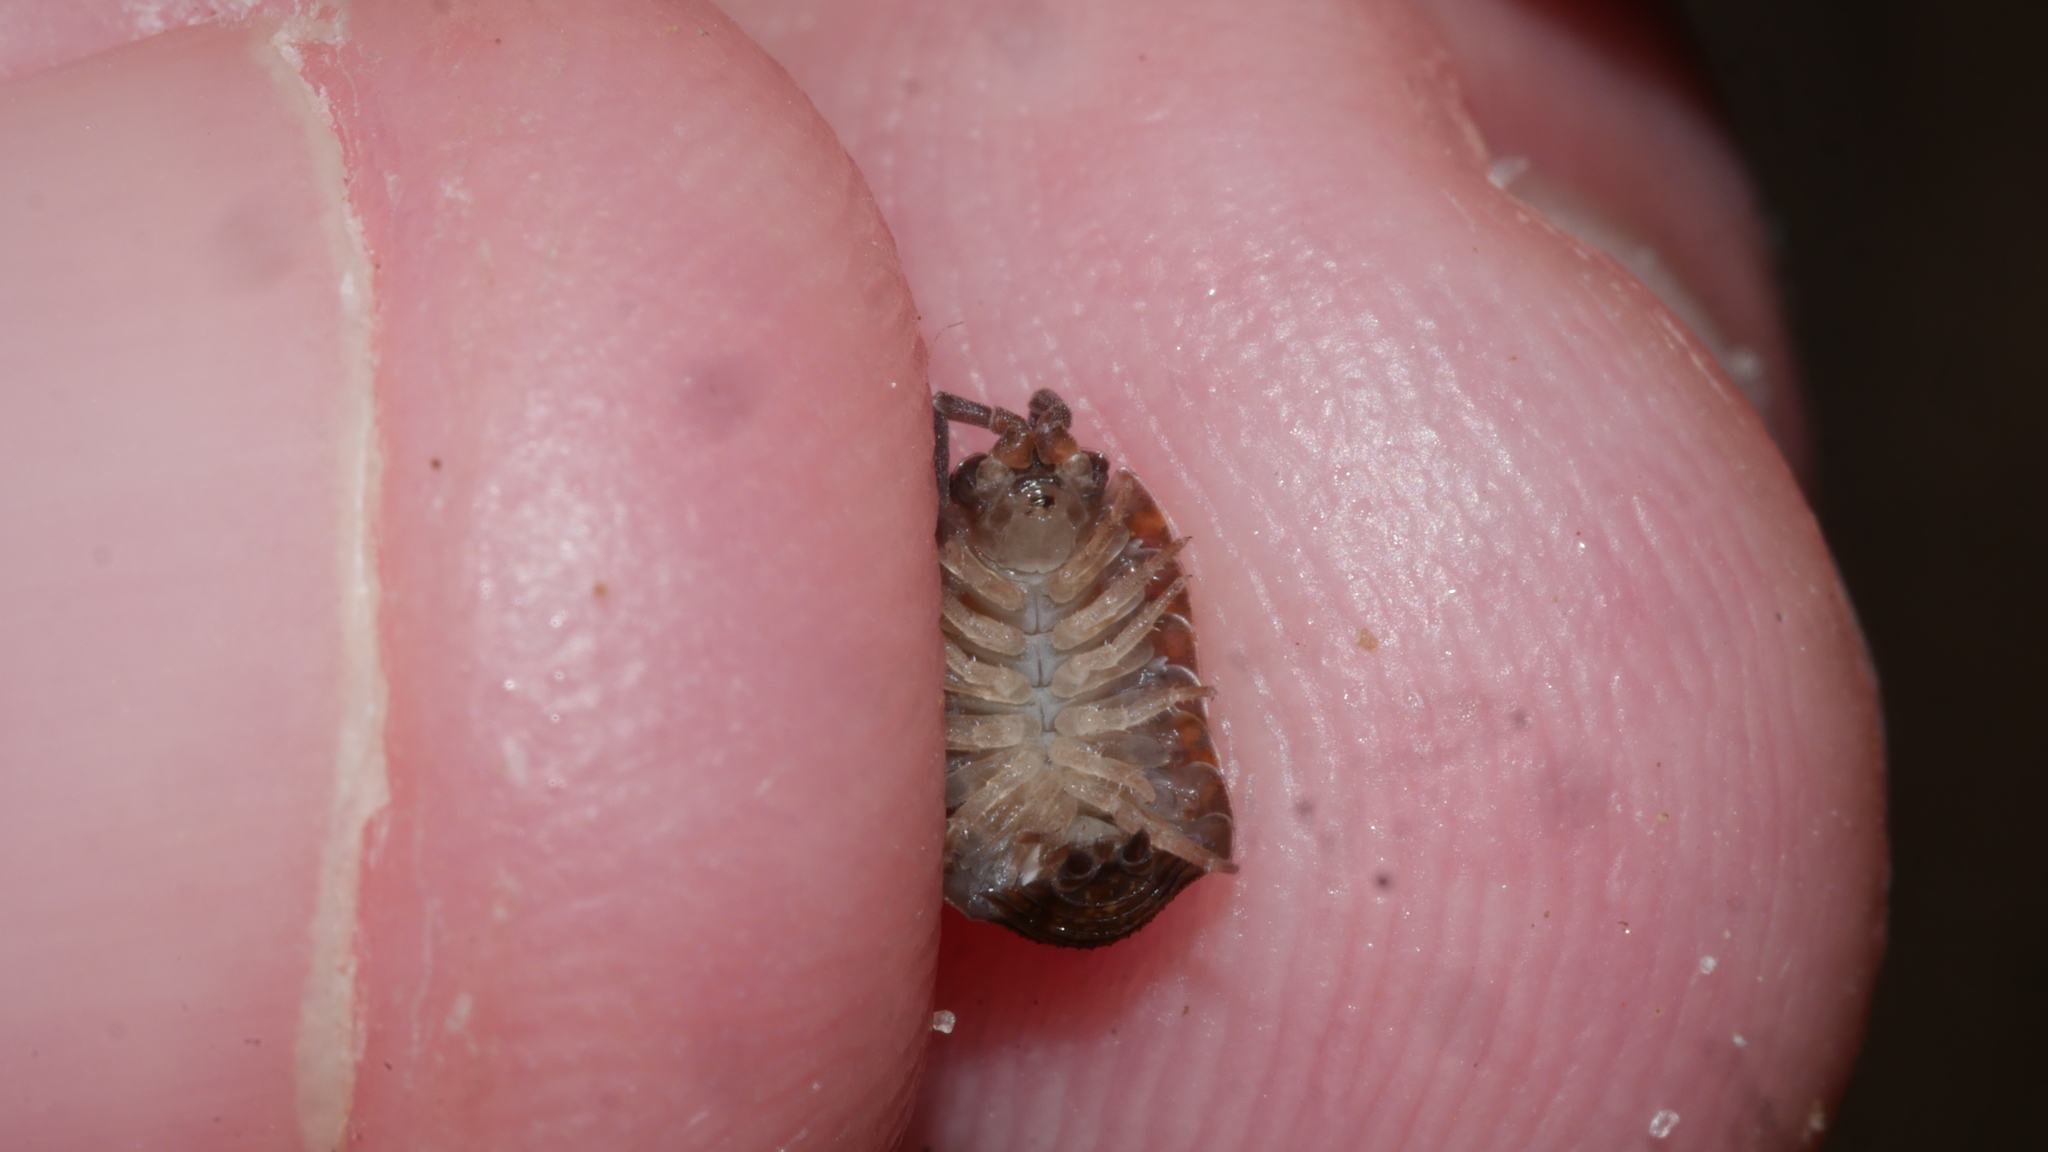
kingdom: Animalia
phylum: Arthropoda
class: Malacostraca
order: Isopoda
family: Porcellionidae
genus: Porcellio
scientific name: Porcellio scaber
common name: Common rough woodlouse
